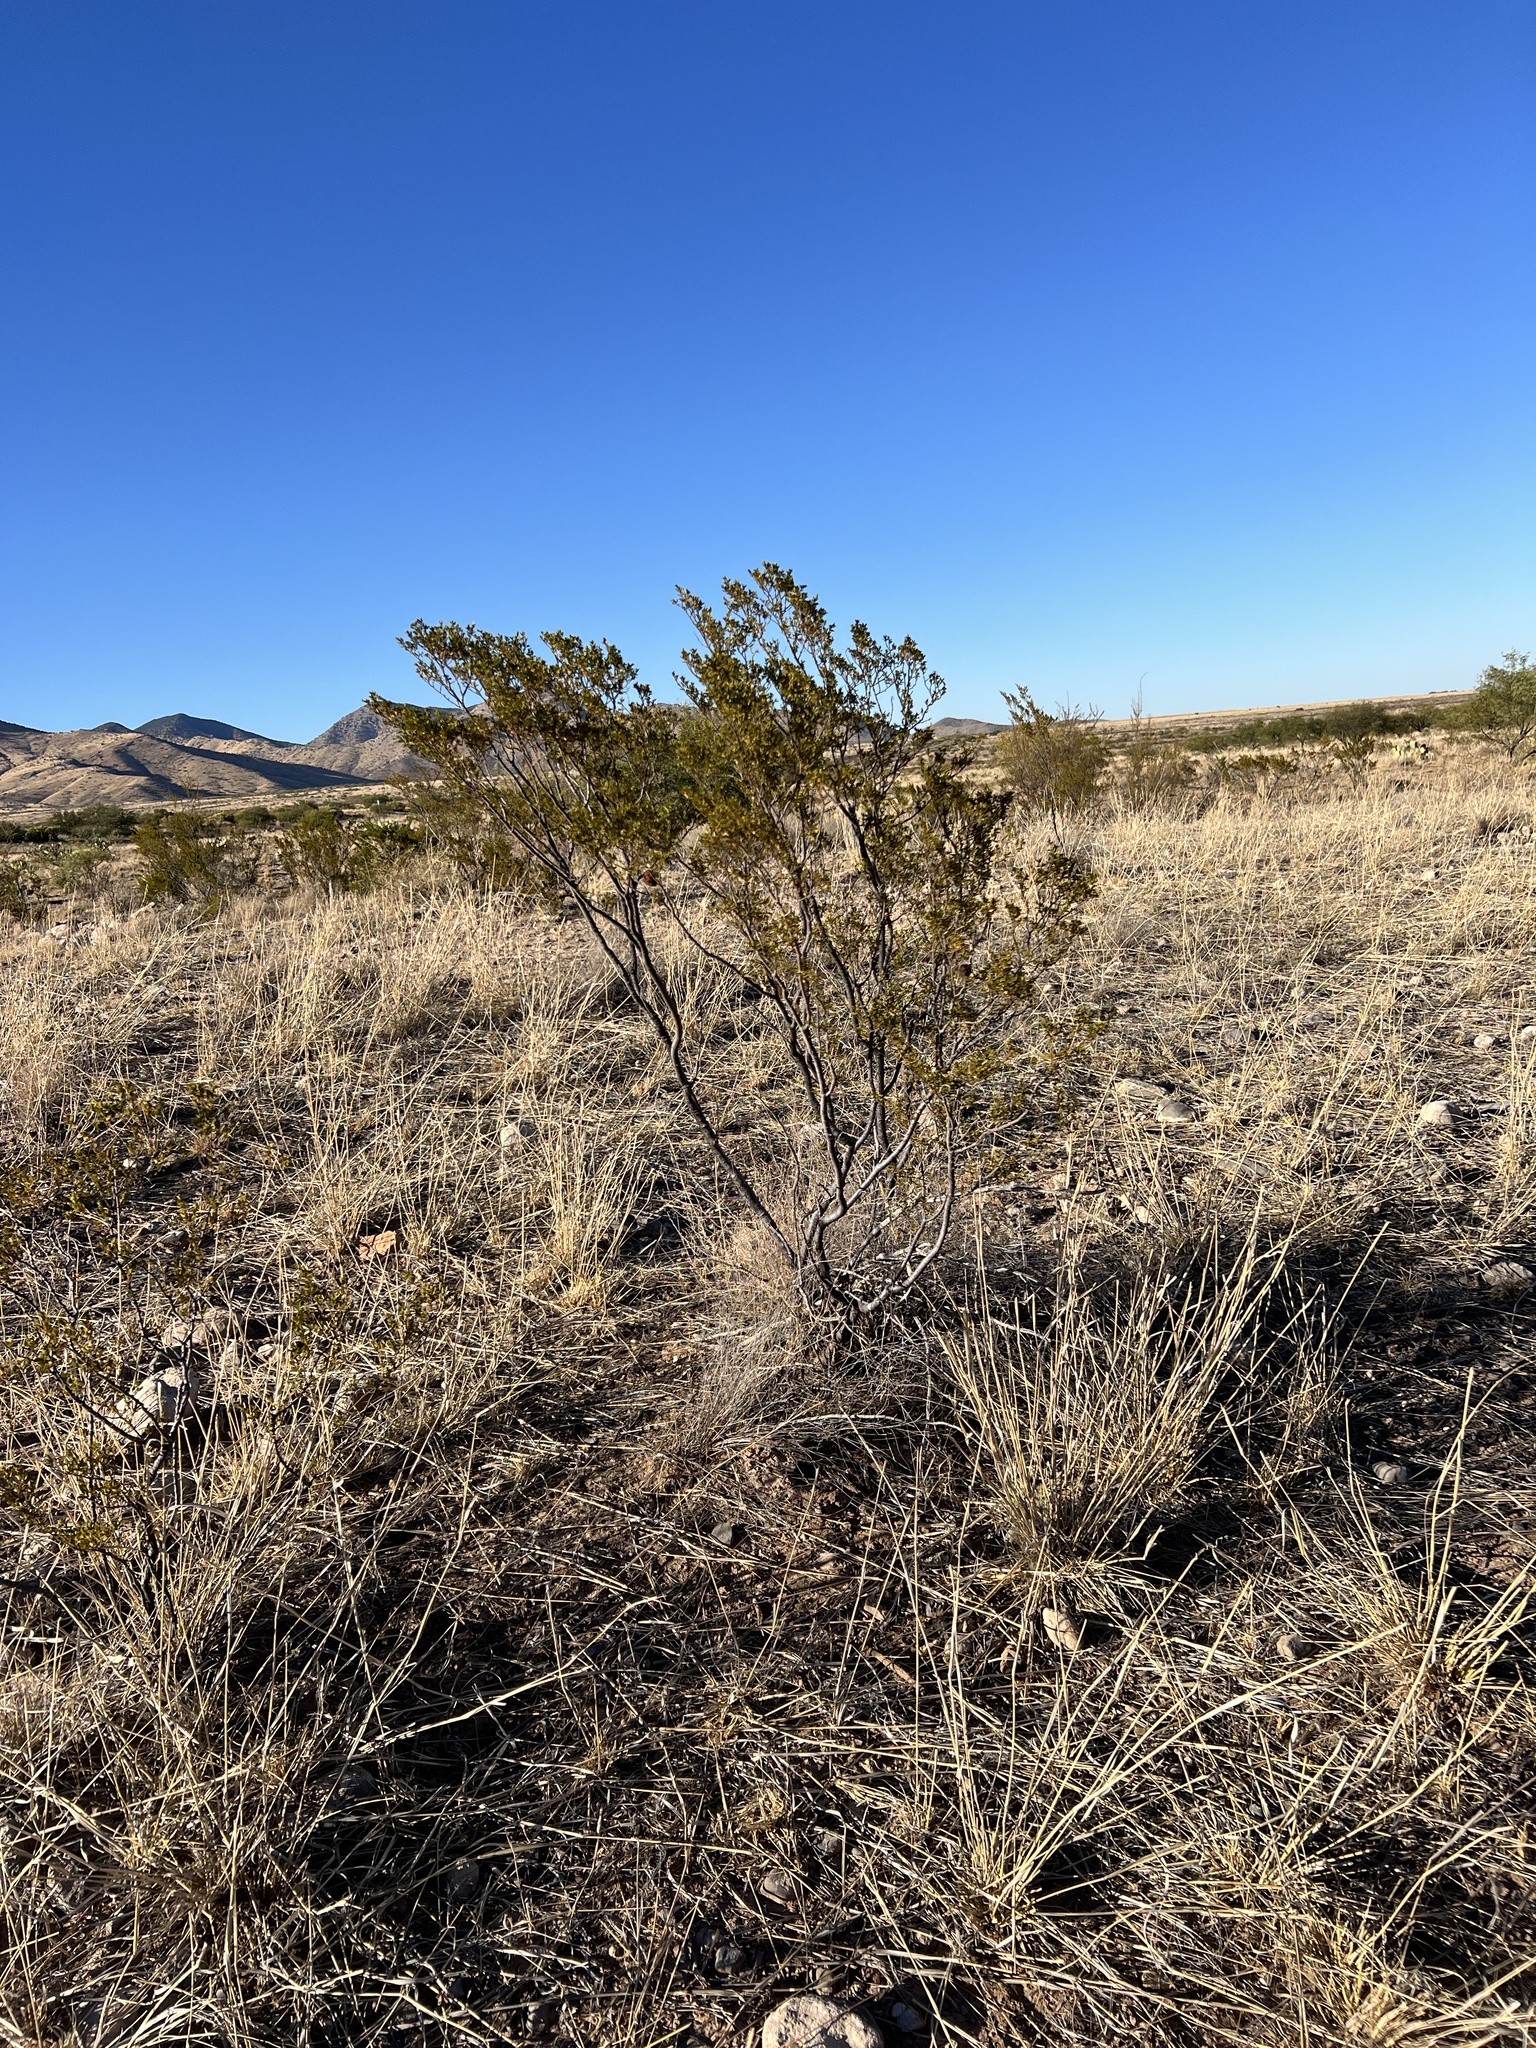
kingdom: Plantae
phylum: Tracheophyta
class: Magnoliopsida
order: Zygophyllales
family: Zygophyllaceae
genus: Larrea
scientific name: Larrea tridentata
